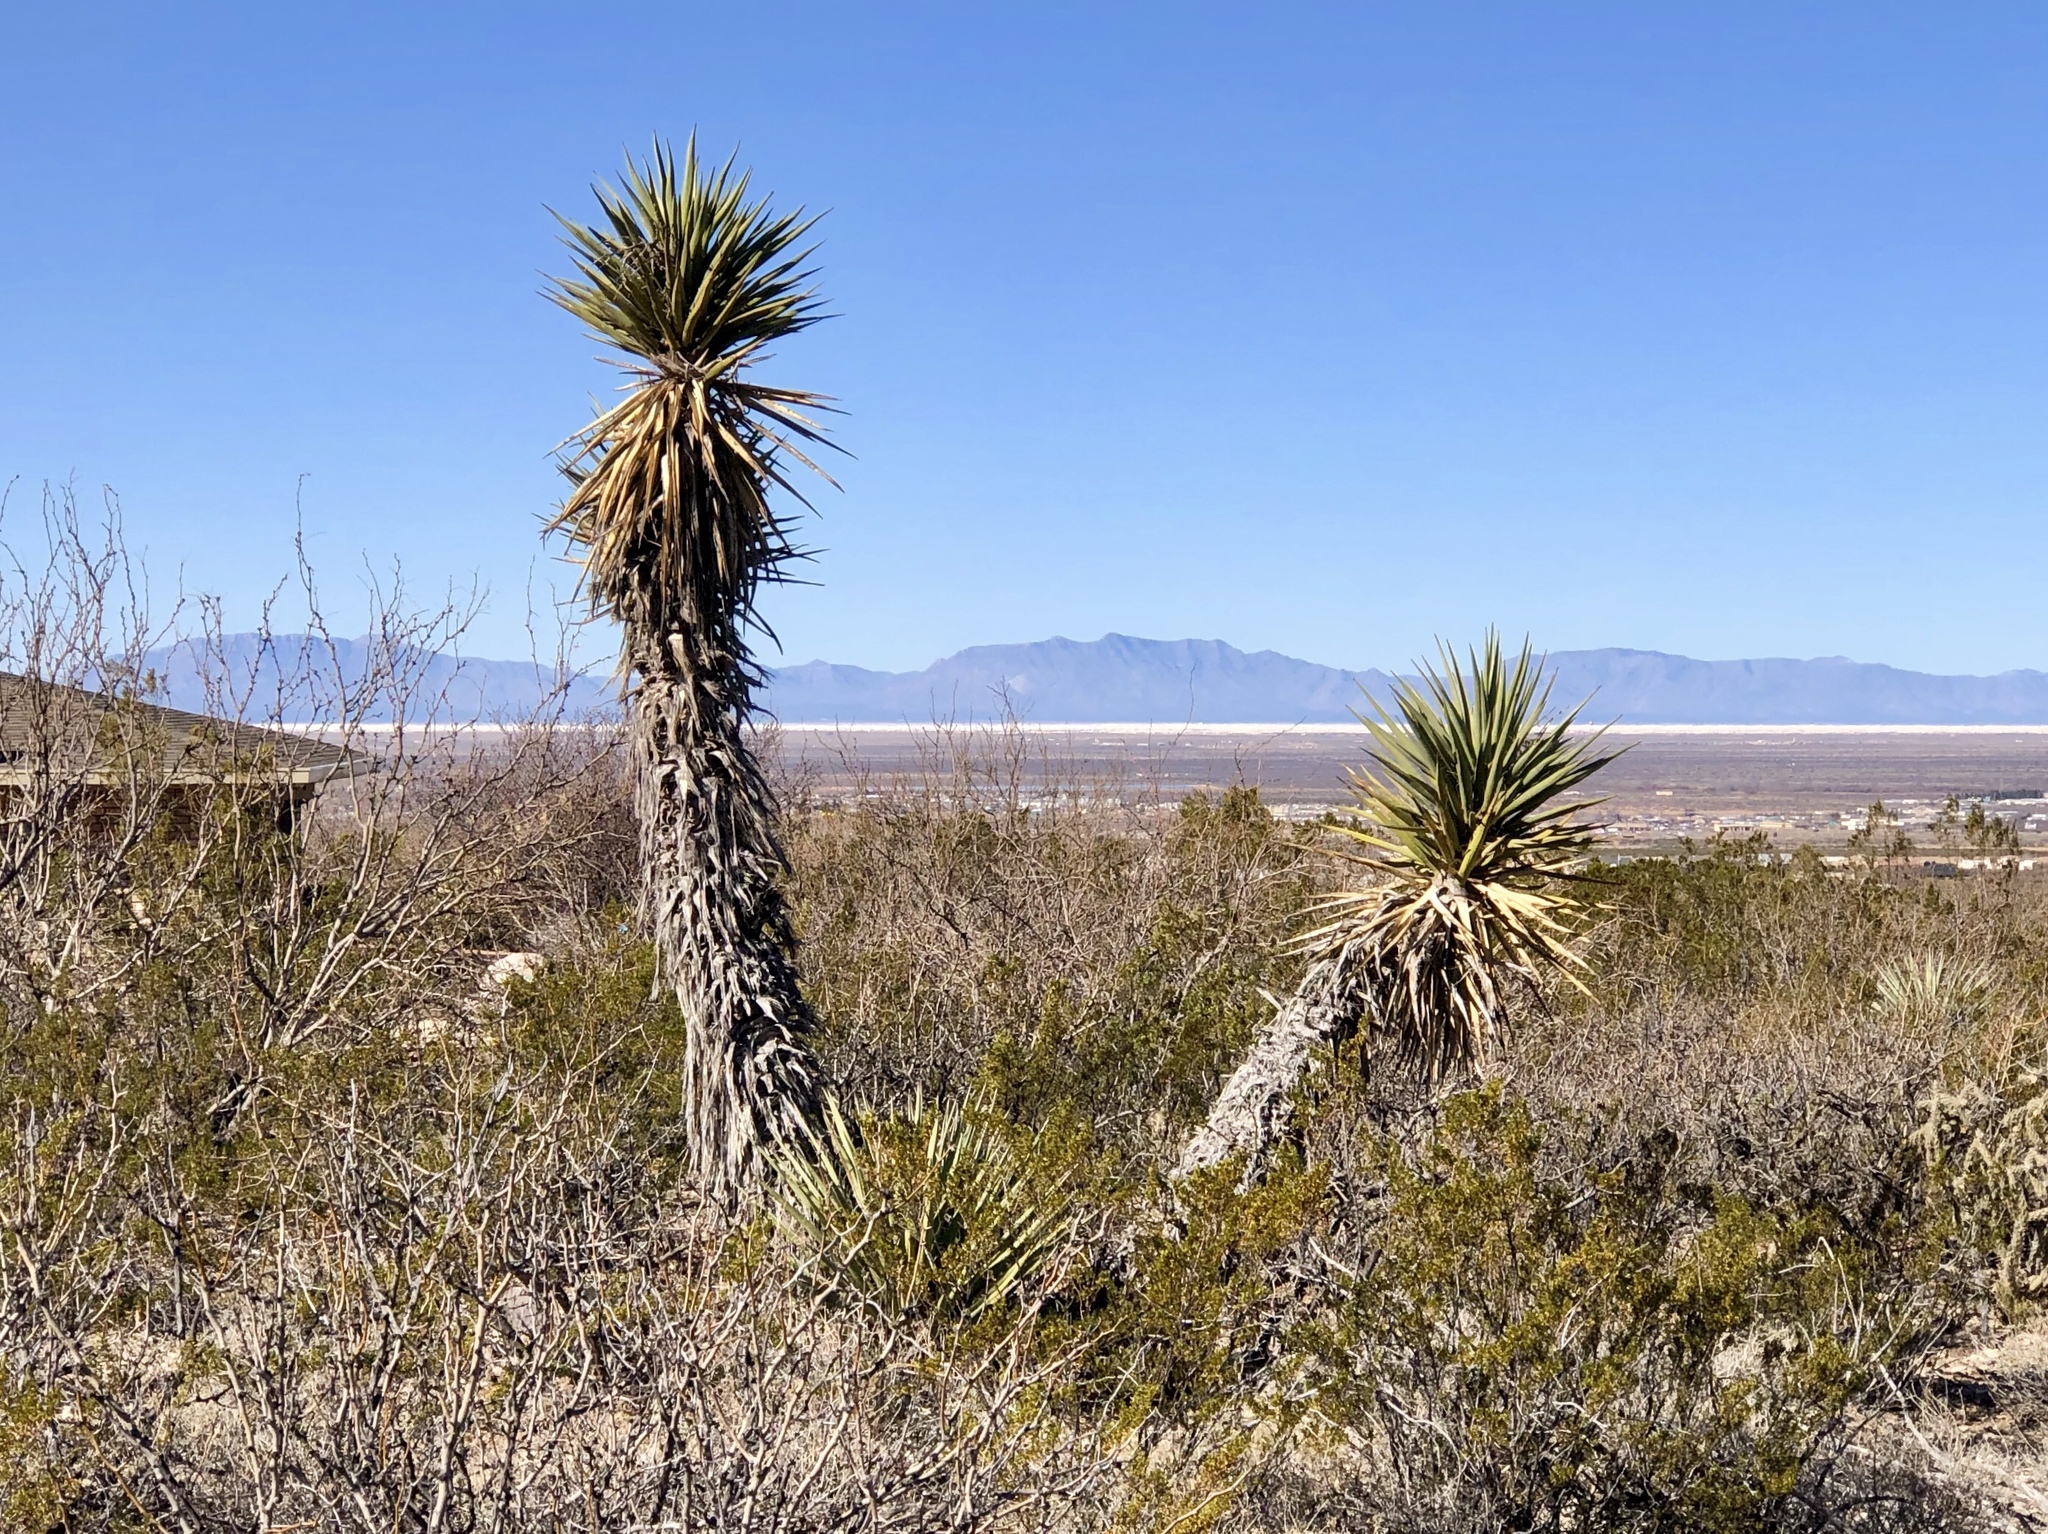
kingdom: Plantae
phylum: Tracheophyta
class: Liliopsida
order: Asparagales
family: Asparagaceae
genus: Yucca
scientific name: Yucca treculiana
